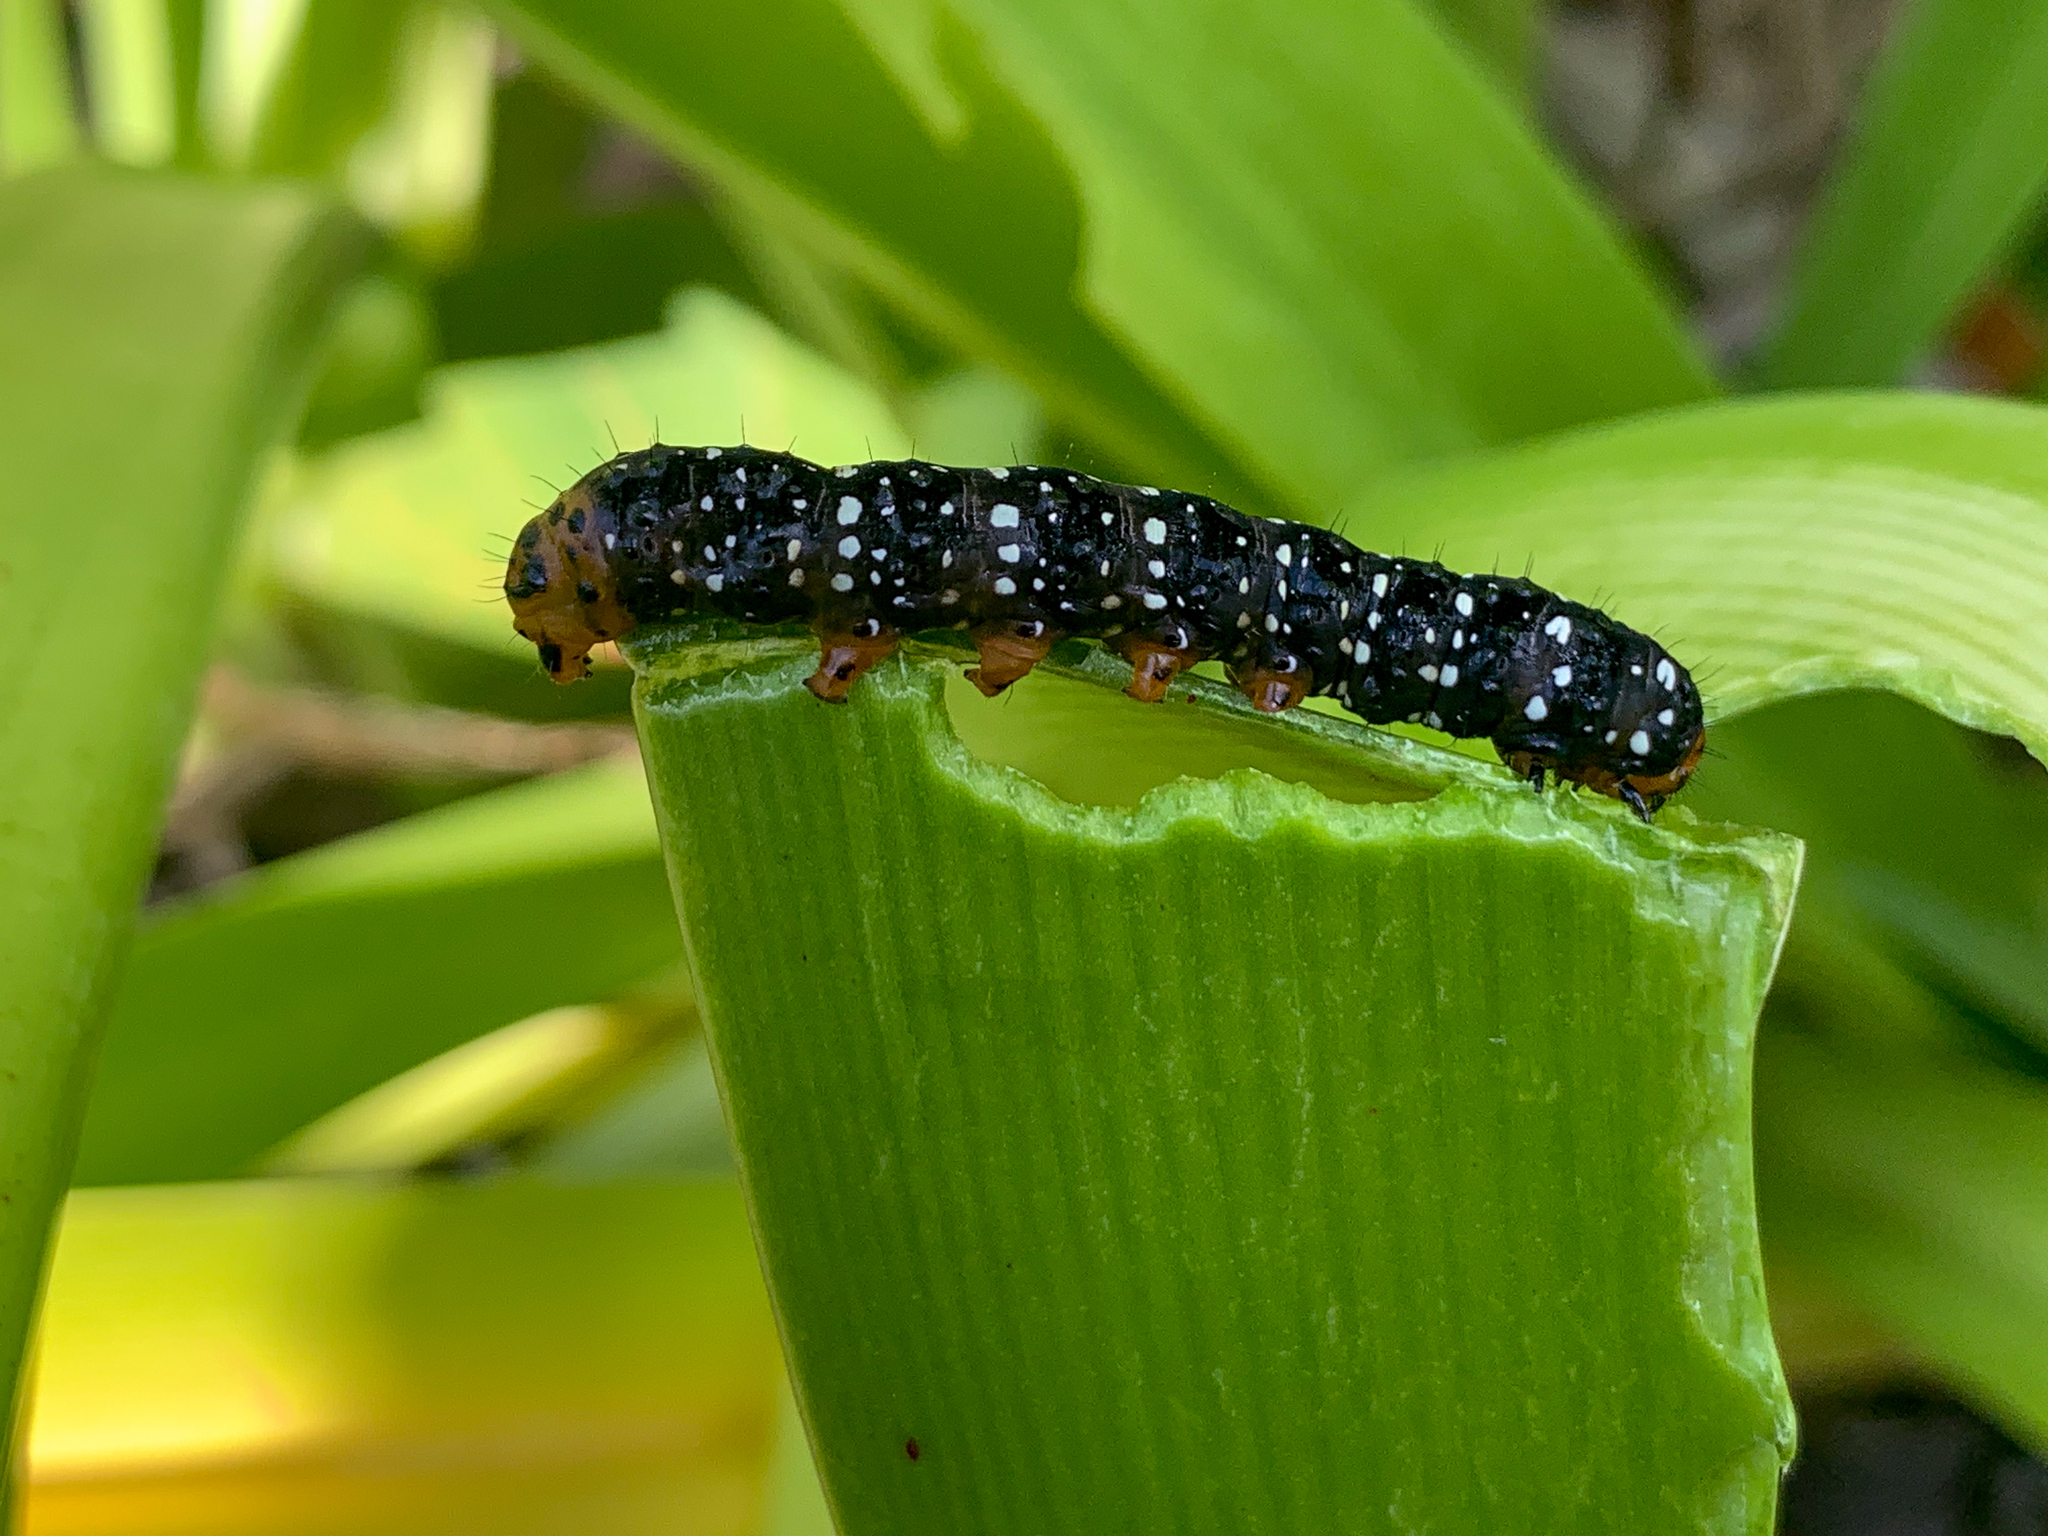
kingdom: Animalia
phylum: Arthropoda
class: Insecta
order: Lepidoptera
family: Noctuidae
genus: Xanthopastis
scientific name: Xanthopastis moctezuma
